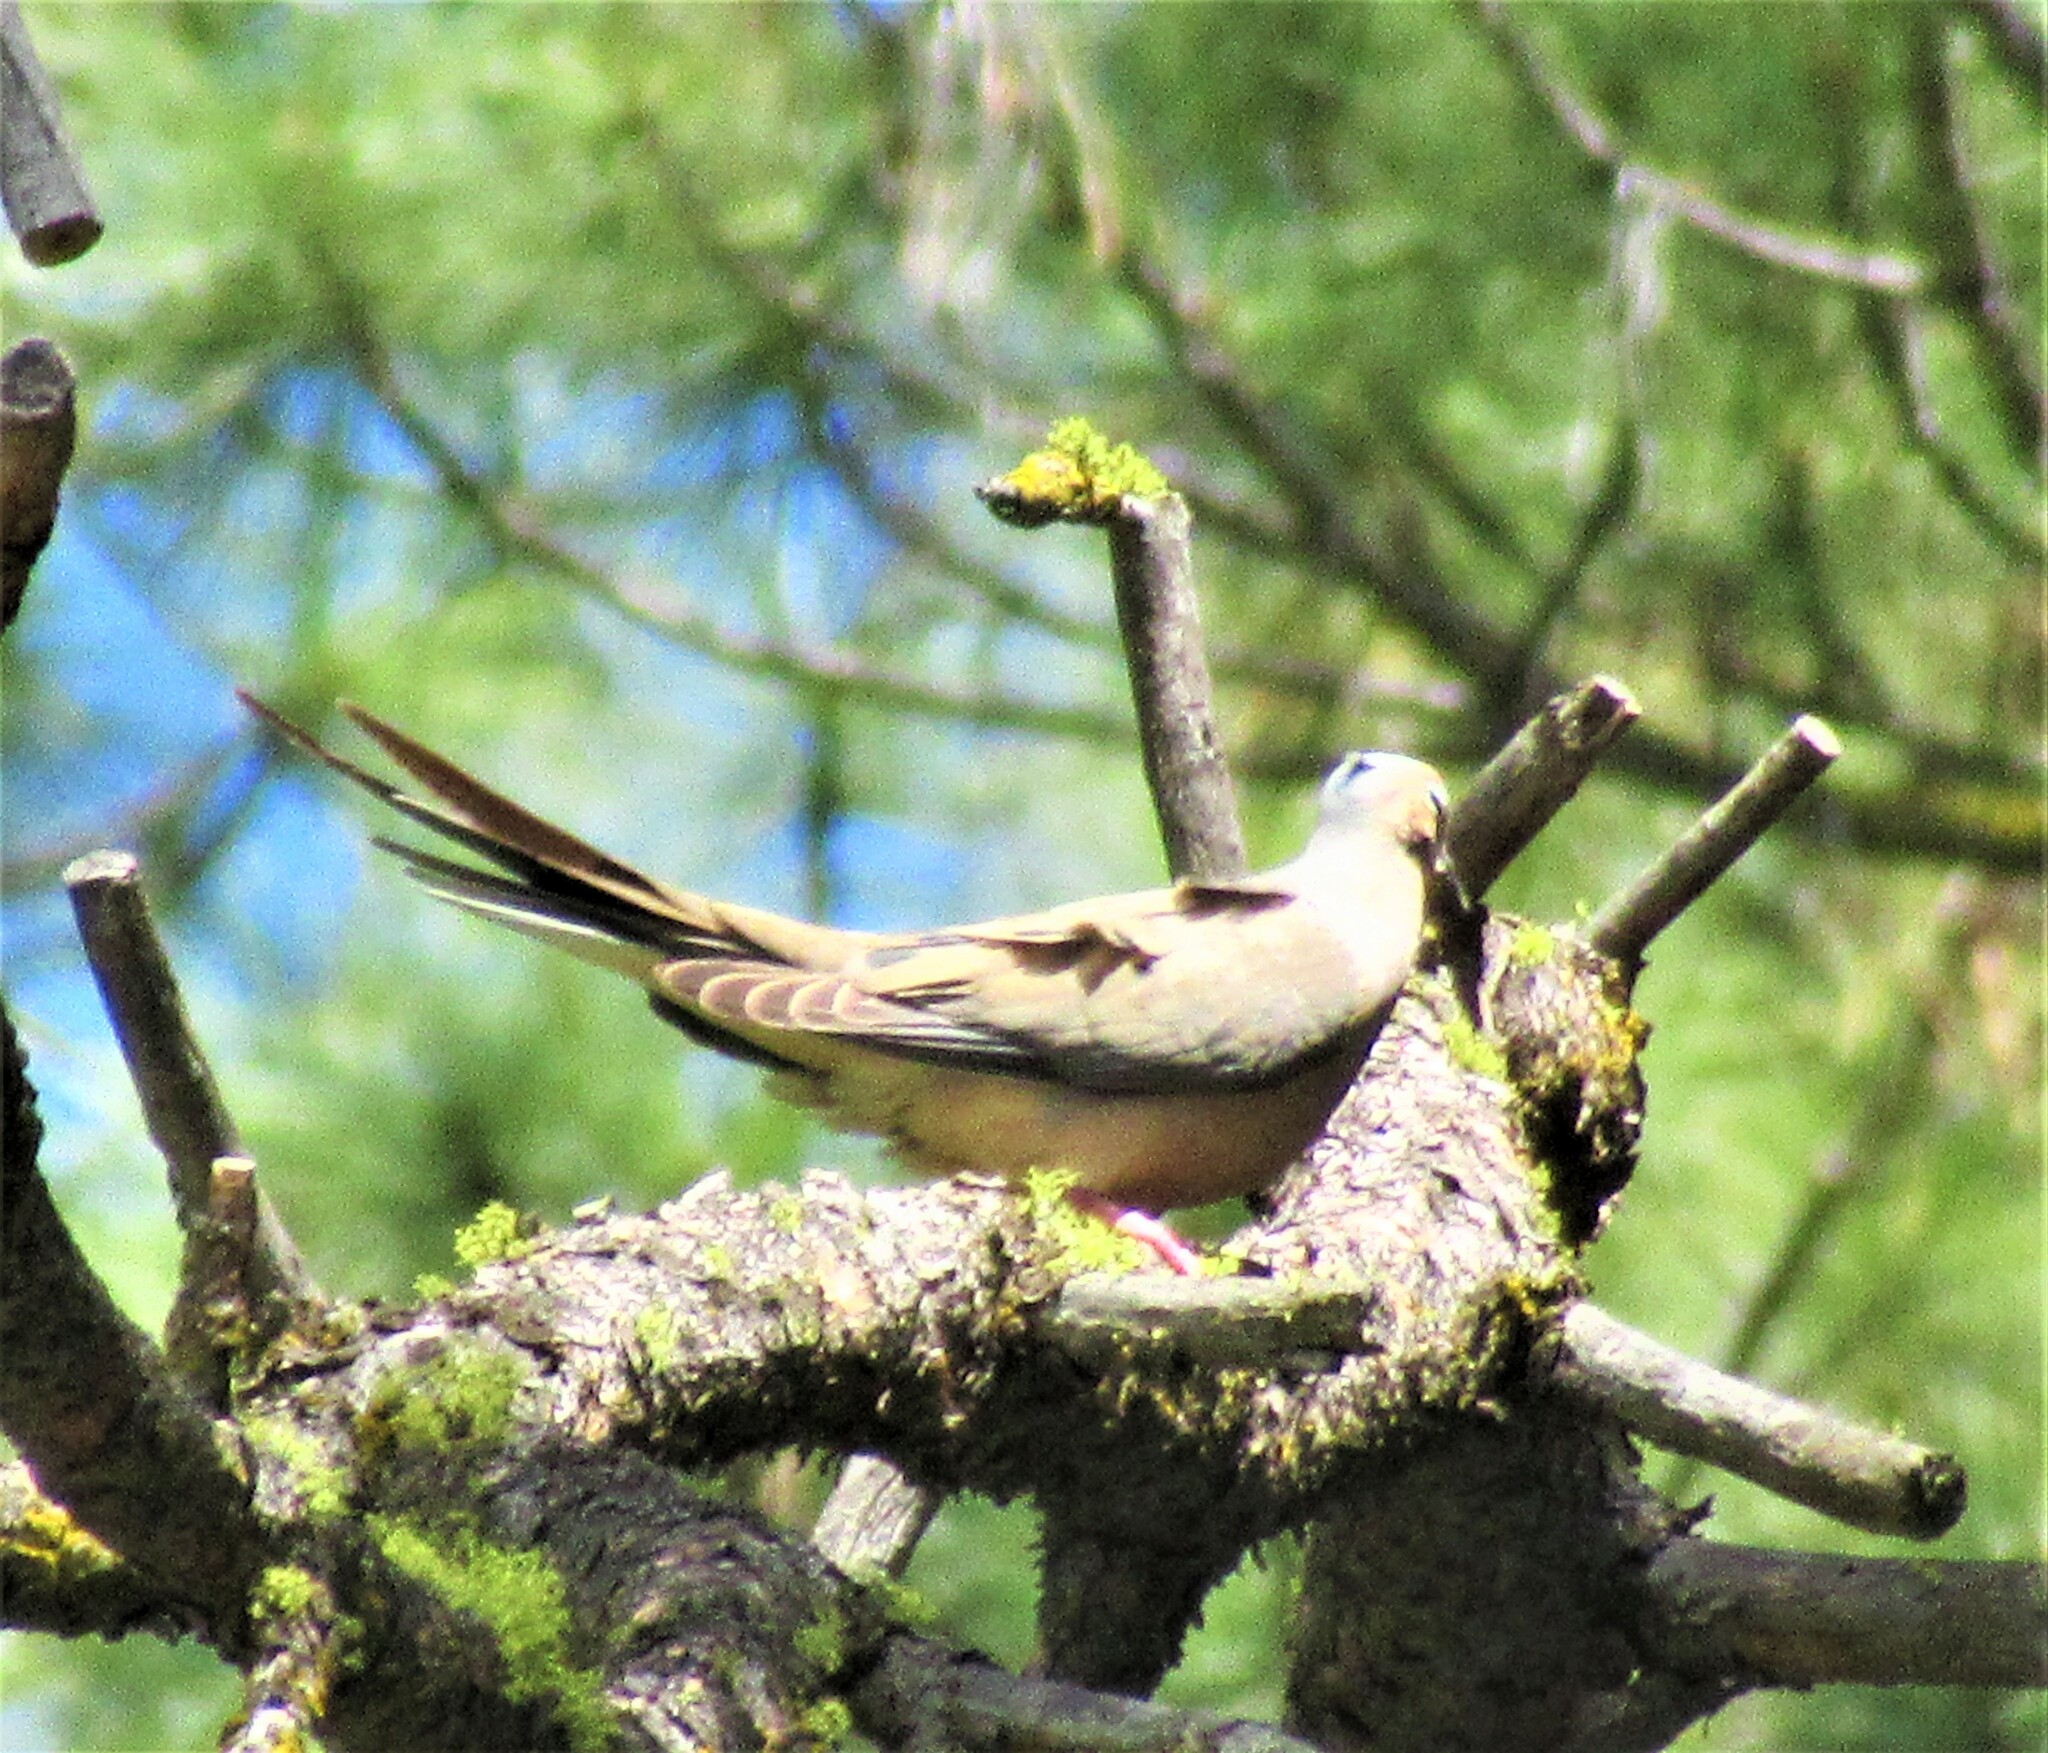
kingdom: Animalia
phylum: Chordata
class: Aves
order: Columbiformes
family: Columbidae
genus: Zenaida
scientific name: Zenaida macroura
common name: Mourning dove
